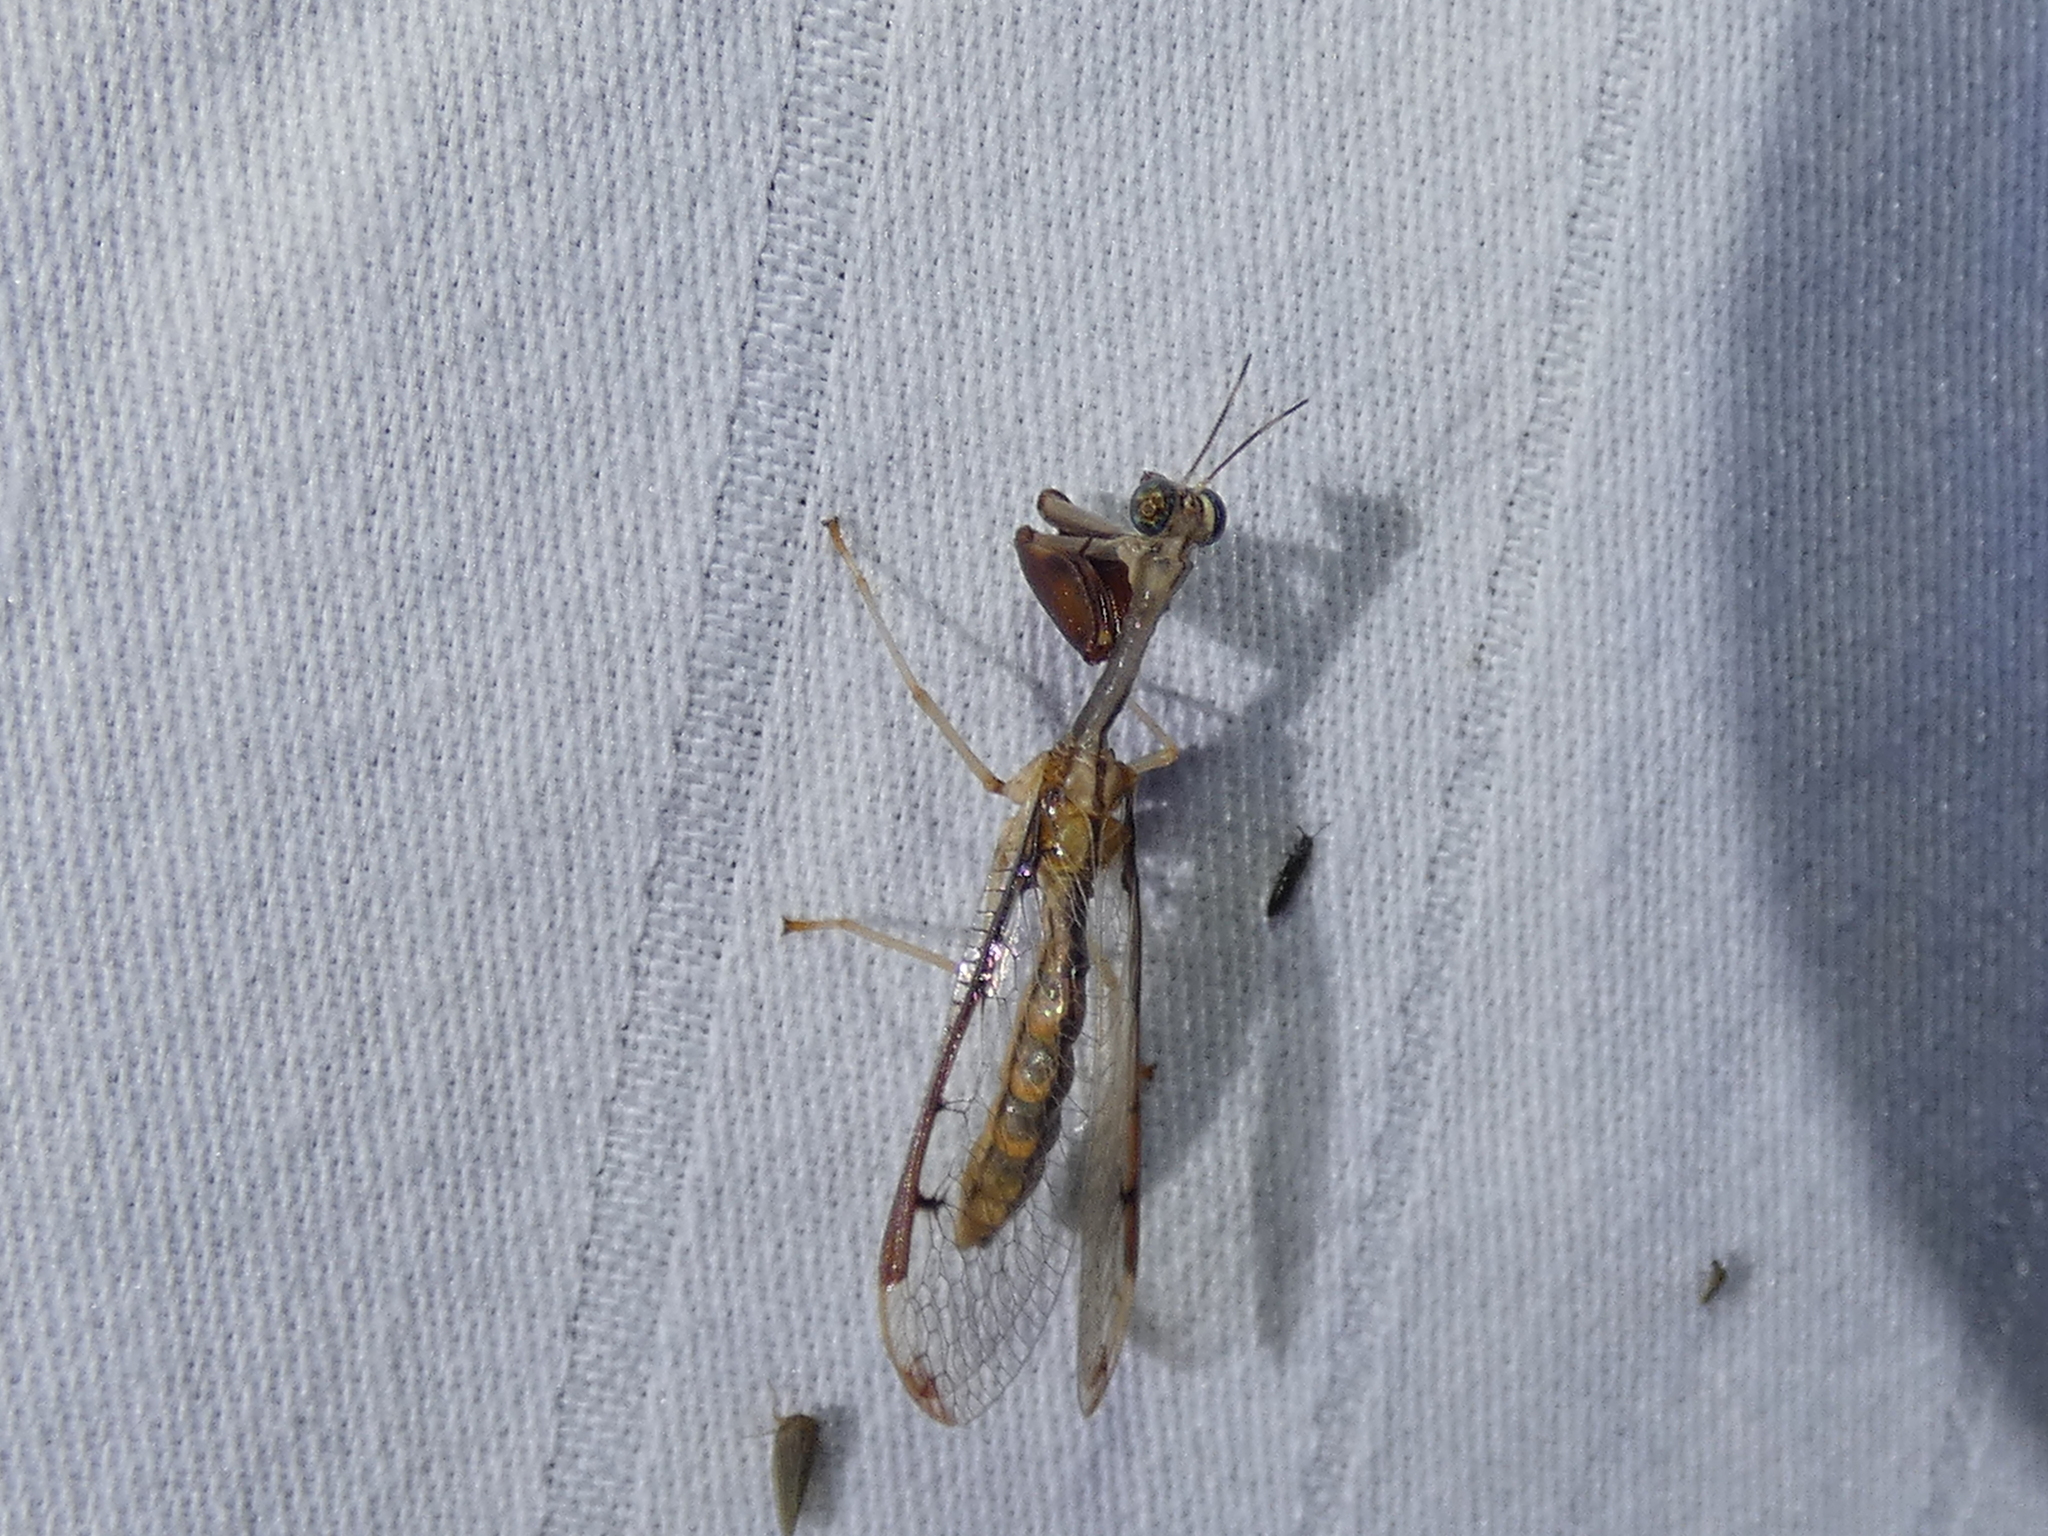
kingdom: Animalia
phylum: Arthropoda
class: Insecta
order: Neuroptera
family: Mantispidae
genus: Dicromantispa
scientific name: Dicromantispa interrupta
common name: Four-spotted mantidfly
